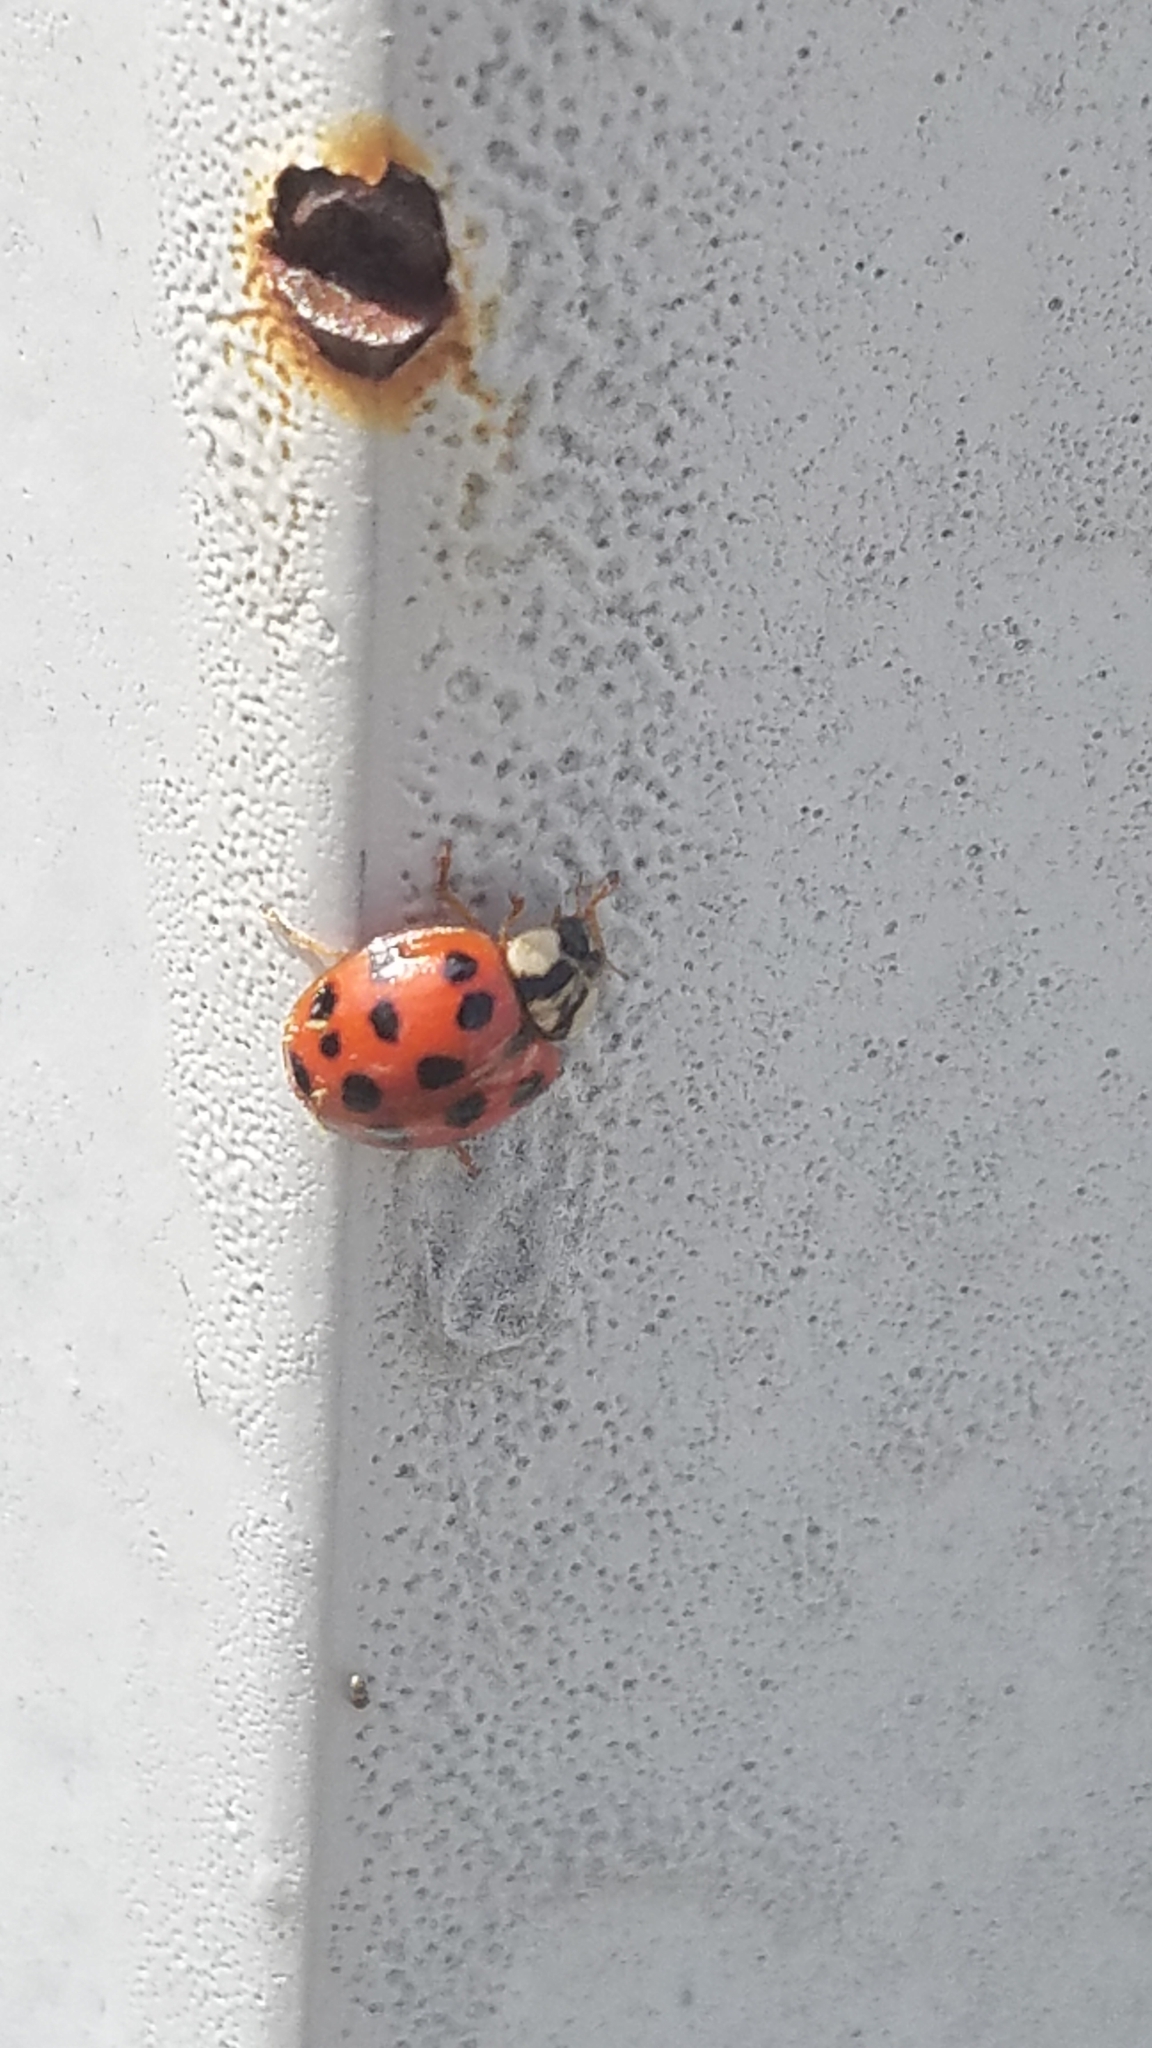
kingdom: Animalia
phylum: Arthropoda
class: Insecta
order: Coleoptera
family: Coccinellidae
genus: Harmonia
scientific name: Harmonia axyridis
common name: Harlequin ladybird
